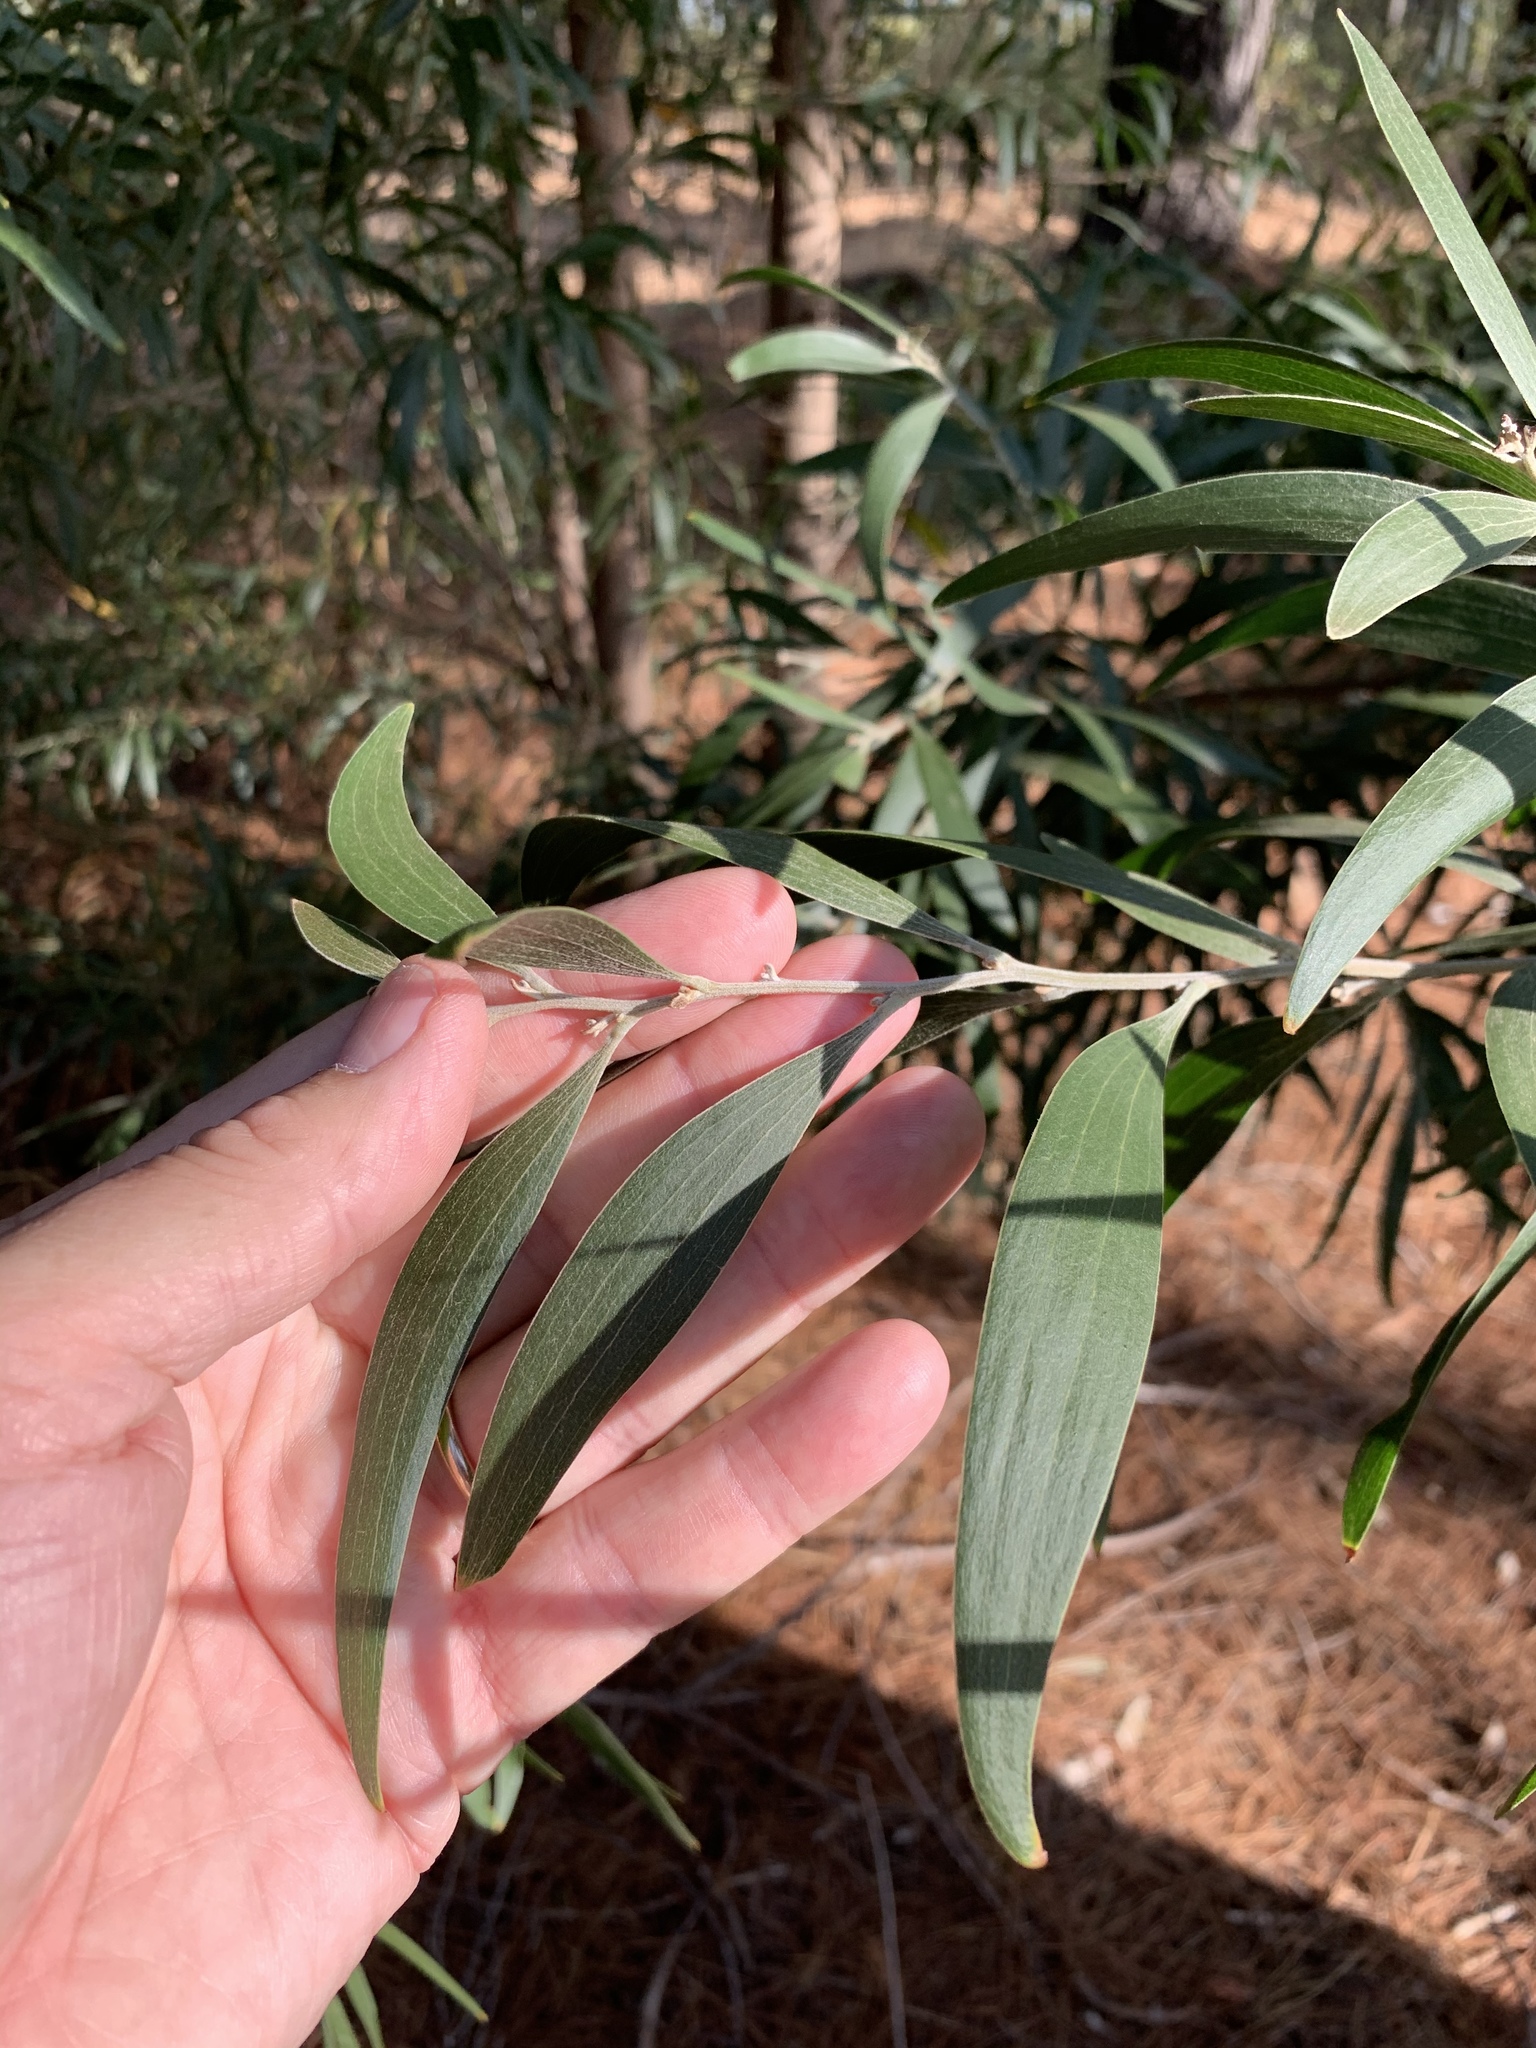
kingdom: Plantae
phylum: Tracheophyta
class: Magnoliopsida
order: Fabales
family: Fabaceae
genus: Acacia
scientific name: Acacia melanoxylon
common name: Blackwood
